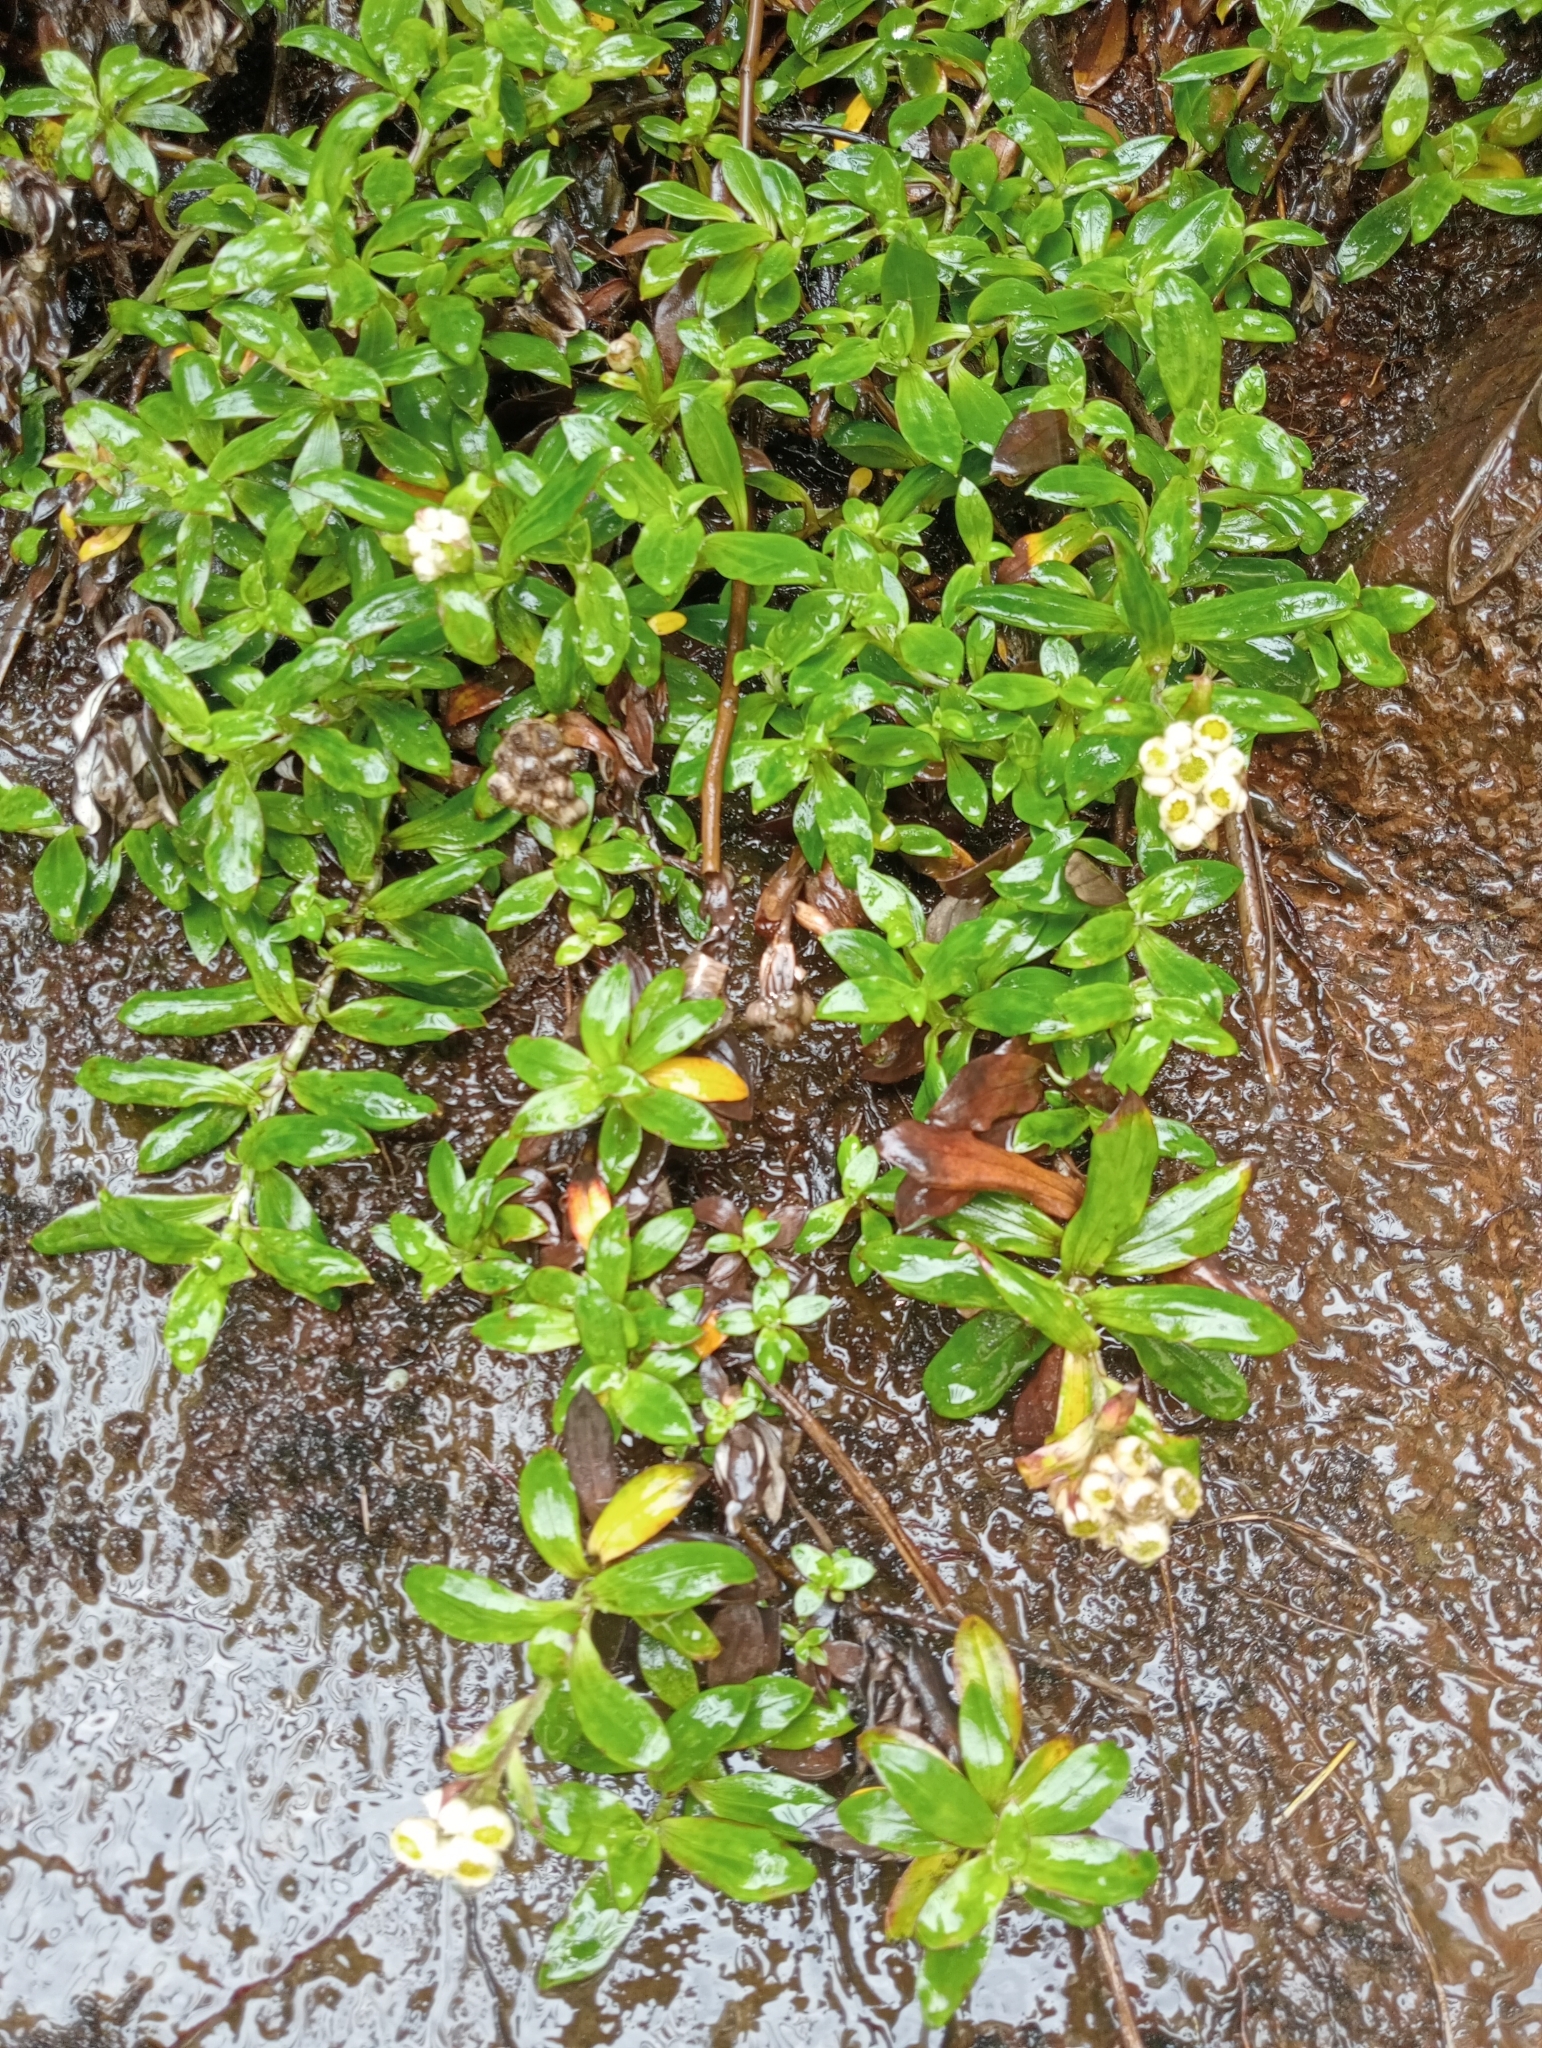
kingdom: Plantae
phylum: Tracheophyta
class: Magnoliopsida
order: Asterales
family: Asteraceae
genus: Anaphalioides
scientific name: Anaphalioides trinervis
